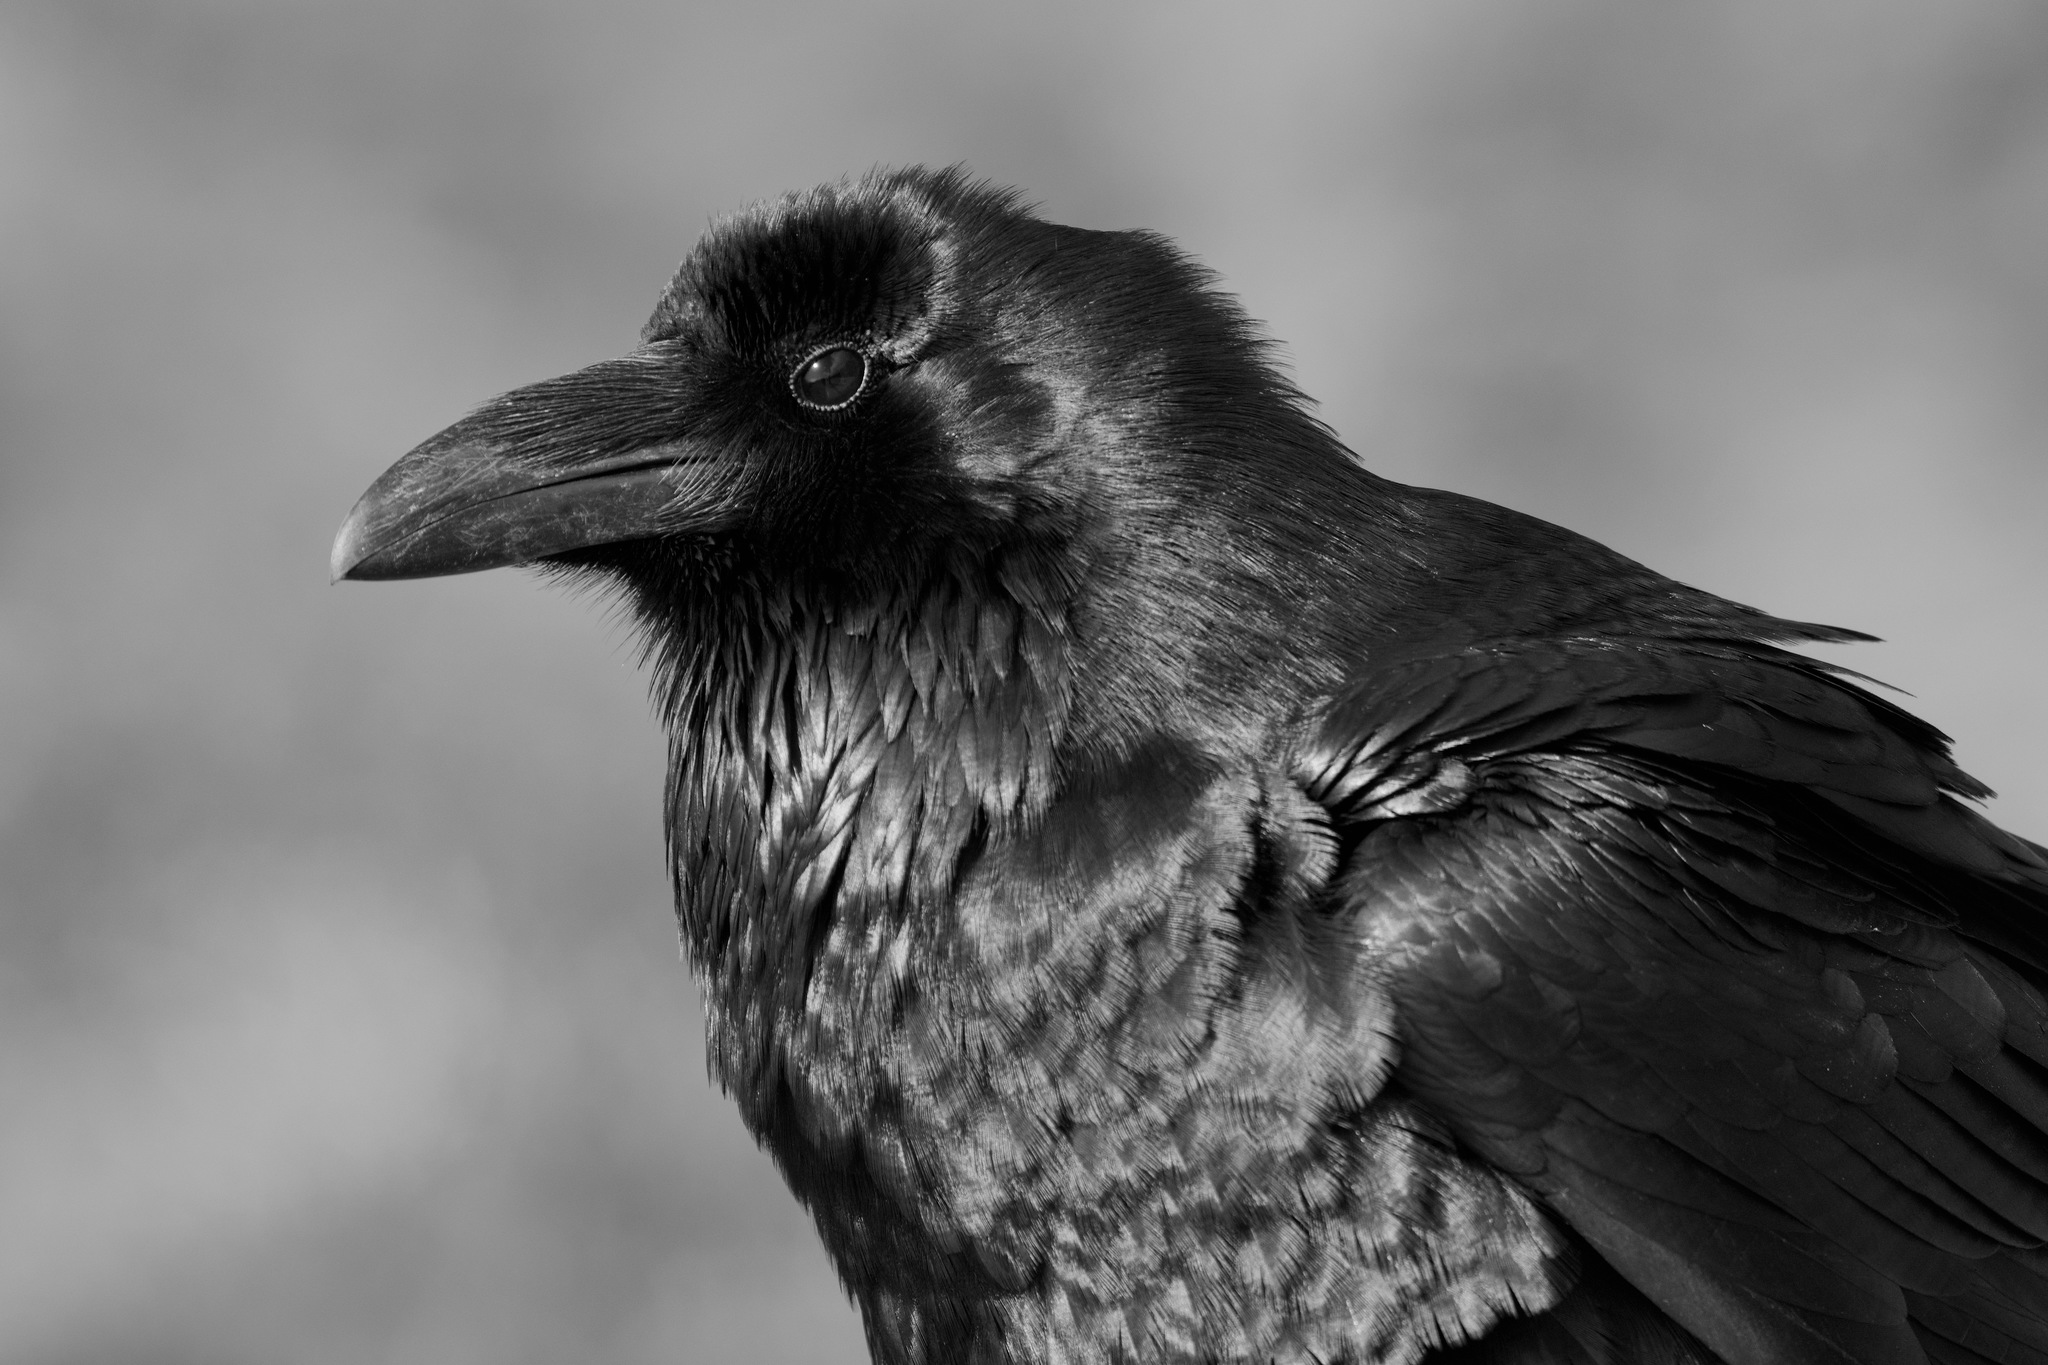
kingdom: Animalia
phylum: Chordata
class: Aves
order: Passeriformes
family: Corvidae
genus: Corvus
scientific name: Corvus corax
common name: Common raven
